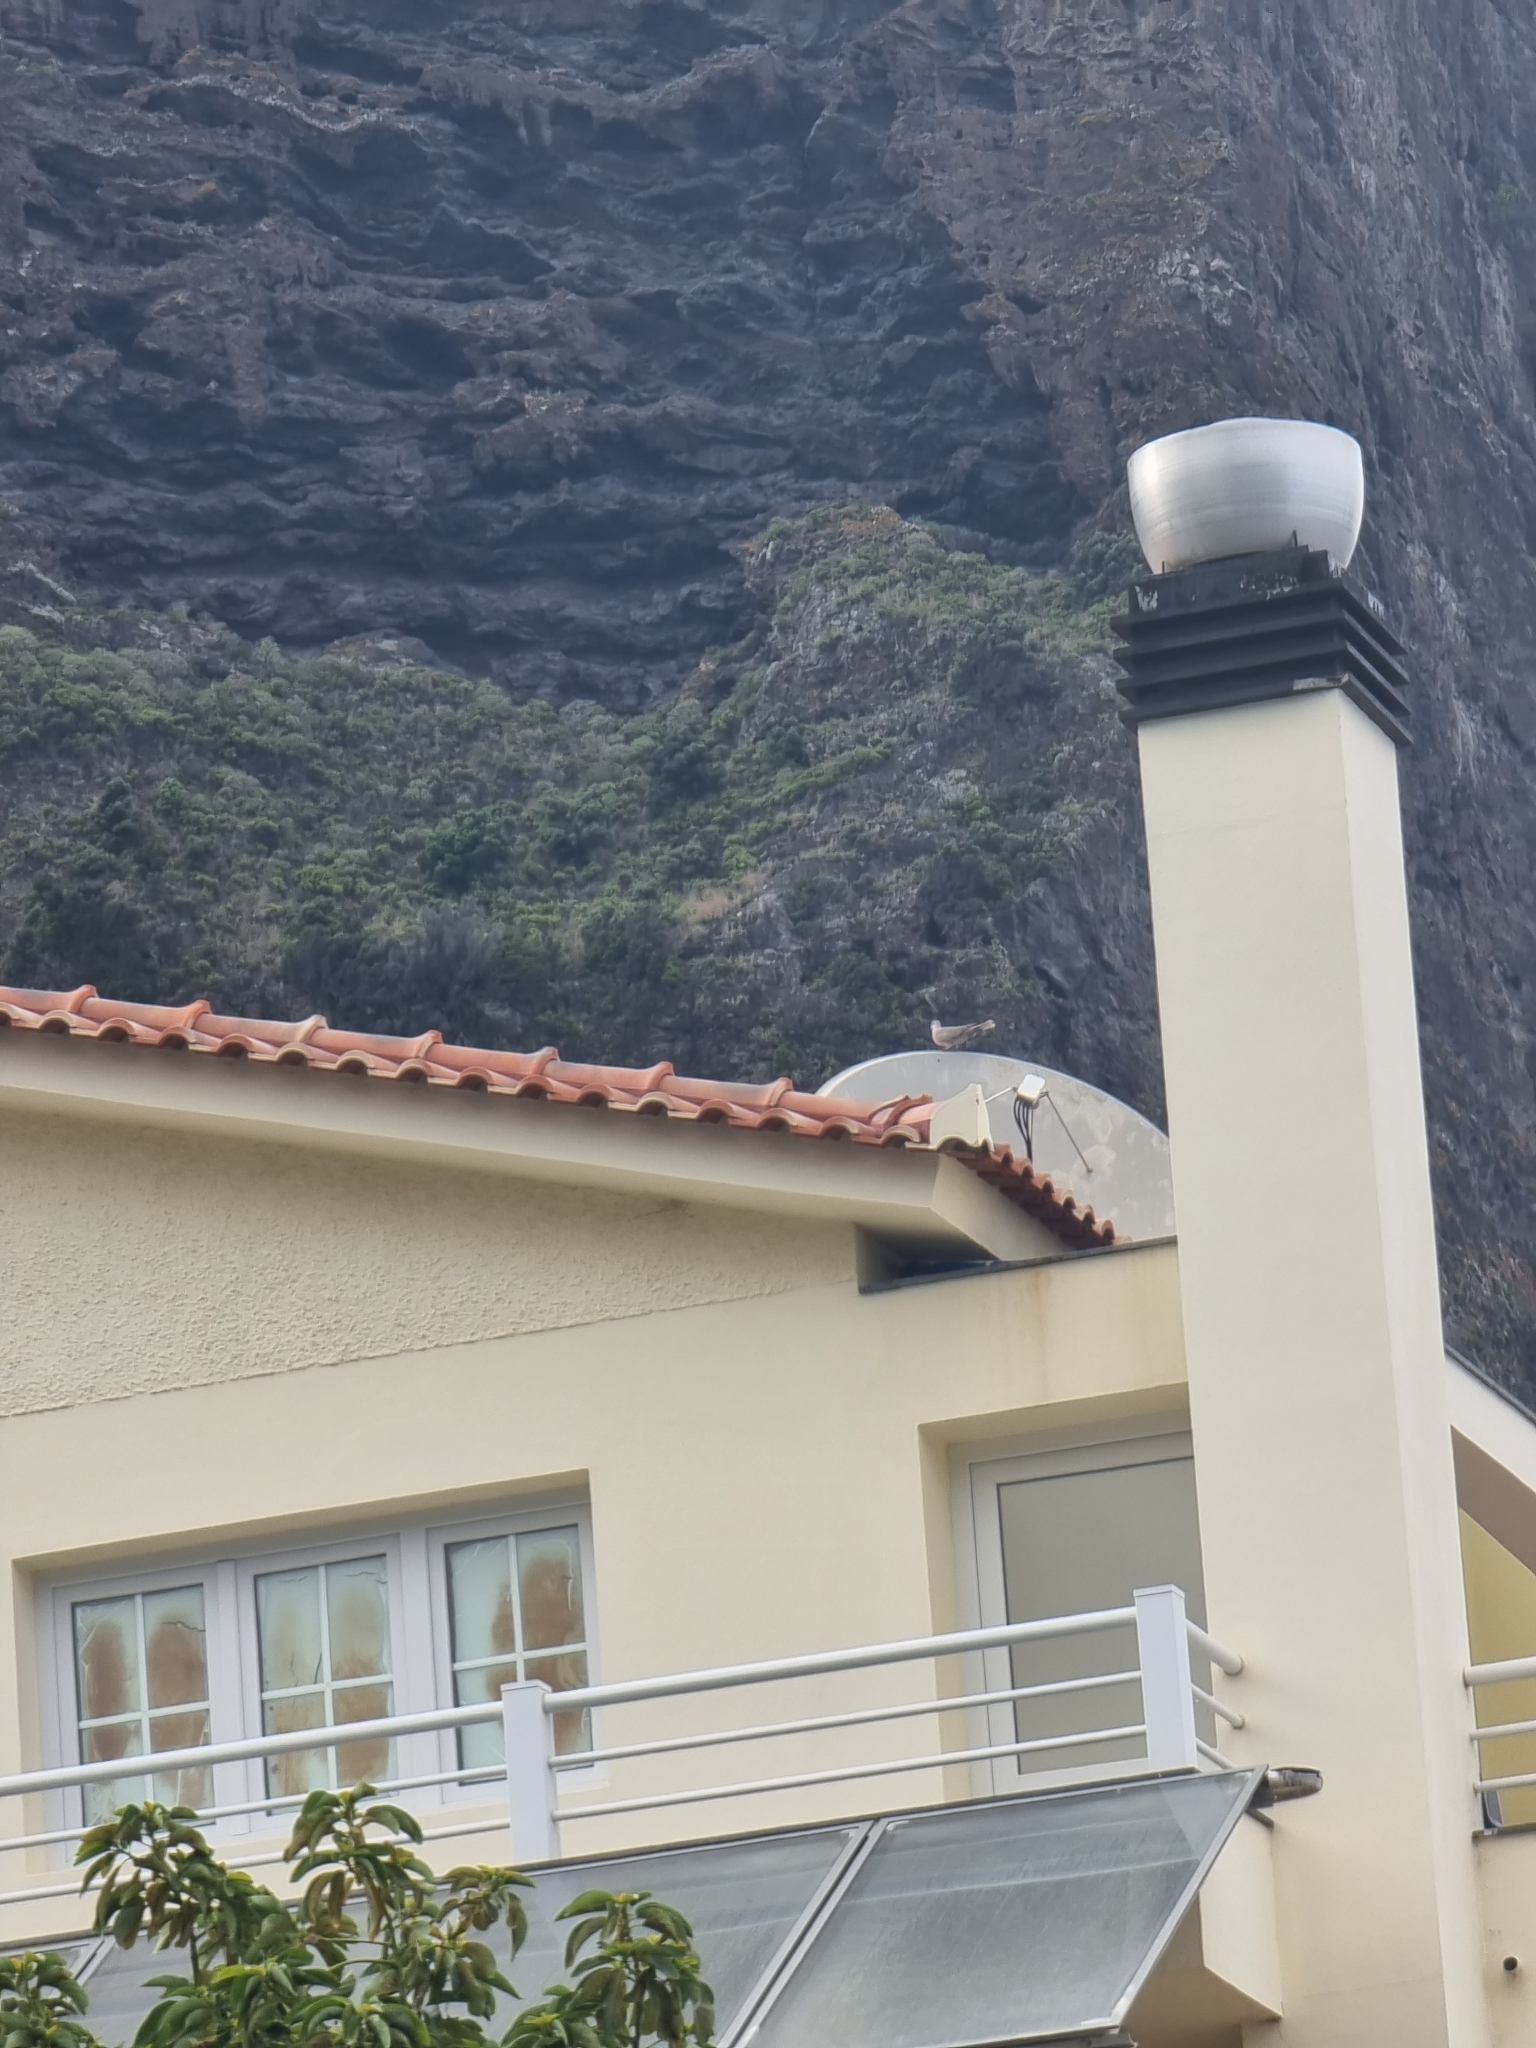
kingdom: Animalia
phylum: Chordata
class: Aves
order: Columbiformes
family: Columbidae
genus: Streptopelia
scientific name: Streptopelia decaocto
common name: Eurasian collared dove
